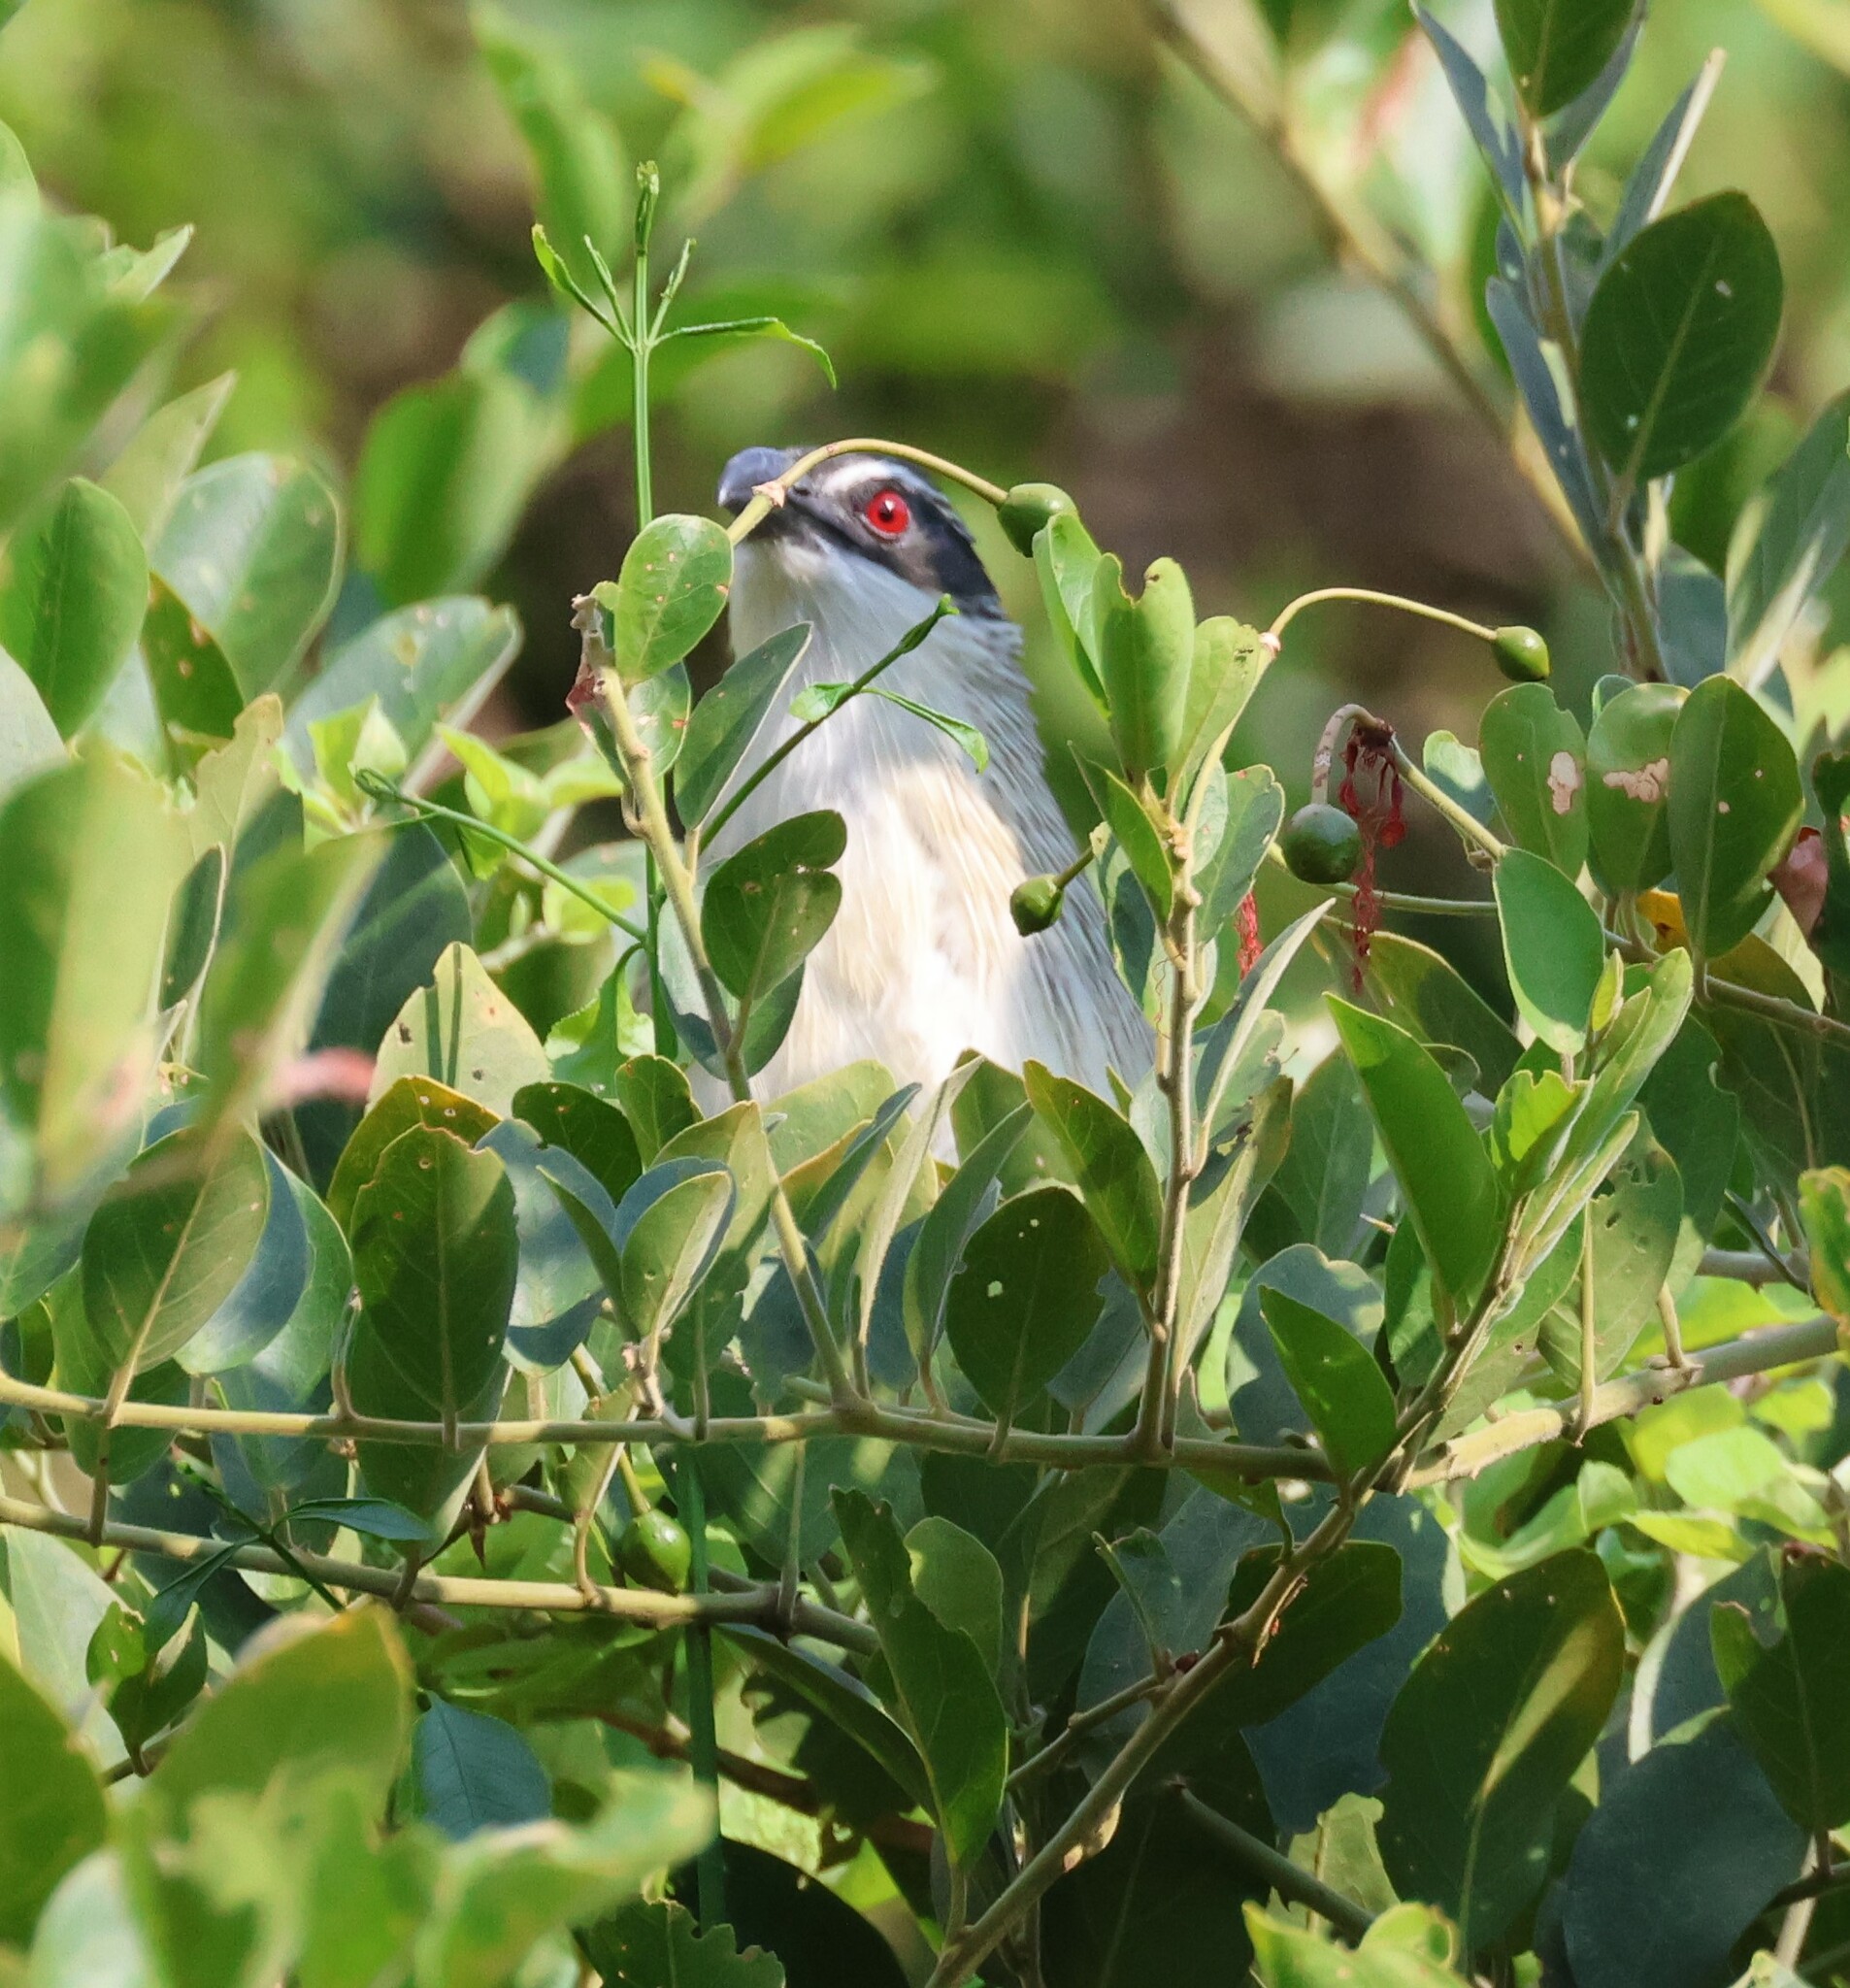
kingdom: Animalia
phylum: Chordata
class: Aves
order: Cuculiformes
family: Cuculidae
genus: Centropus
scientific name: Centropus superciliosus
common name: White-browed coucal
